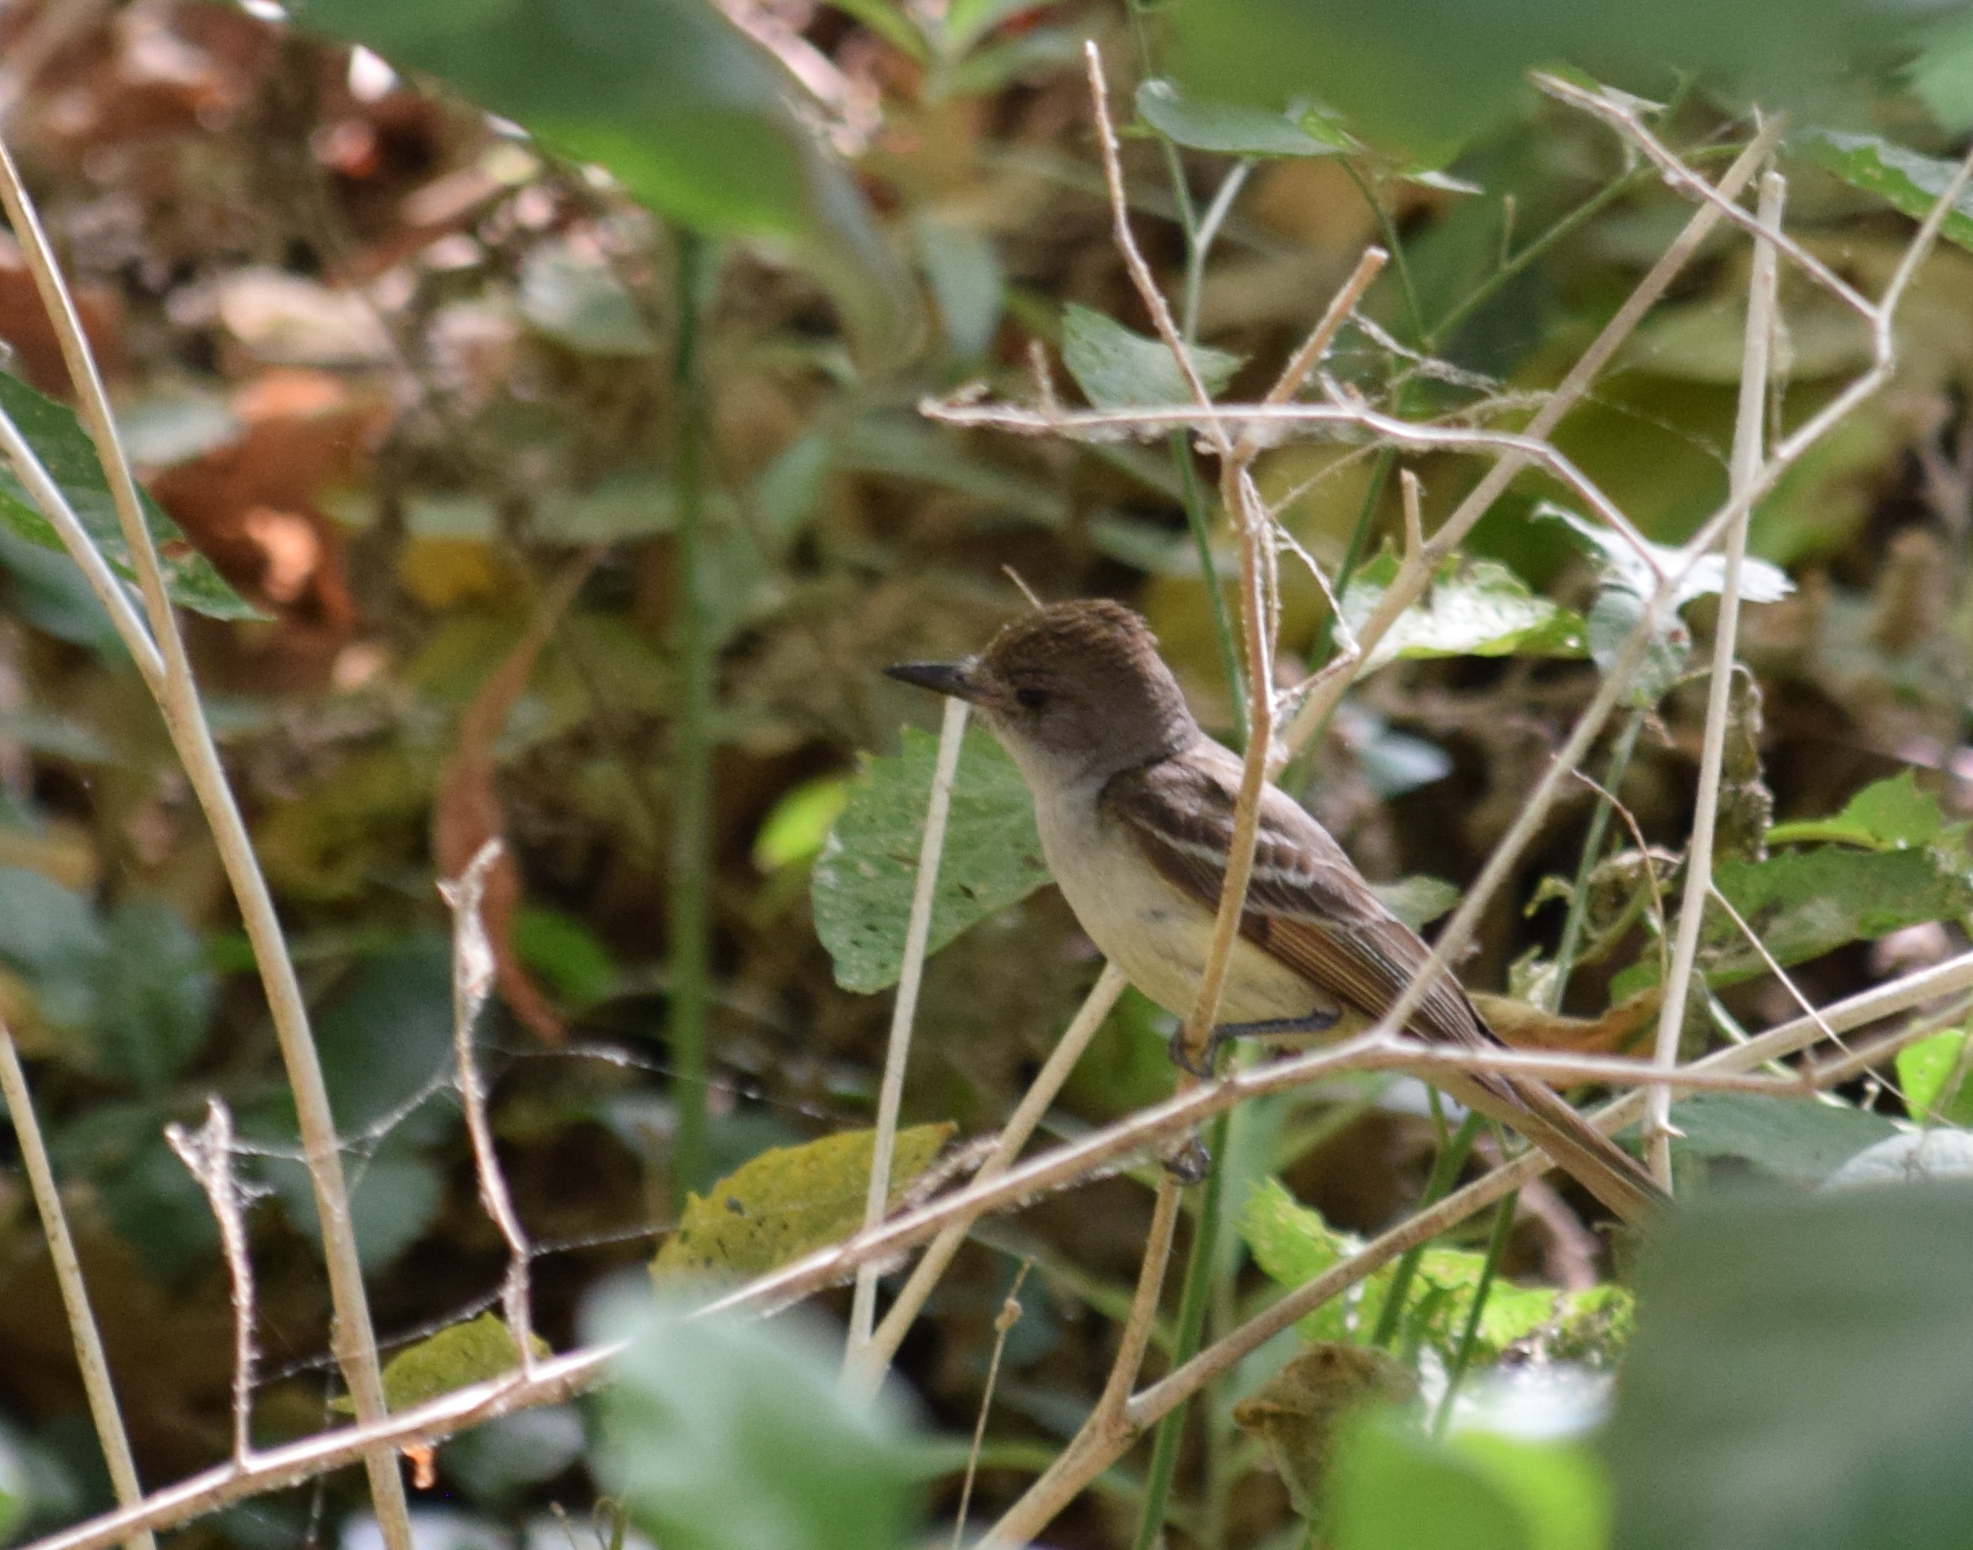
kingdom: Animalia
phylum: Chordata
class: Aves
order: Passeriformes
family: Tyrannidae
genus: Myiarchus
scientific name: Myiarchus cinerascens
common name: Ash-throated flycatcher
